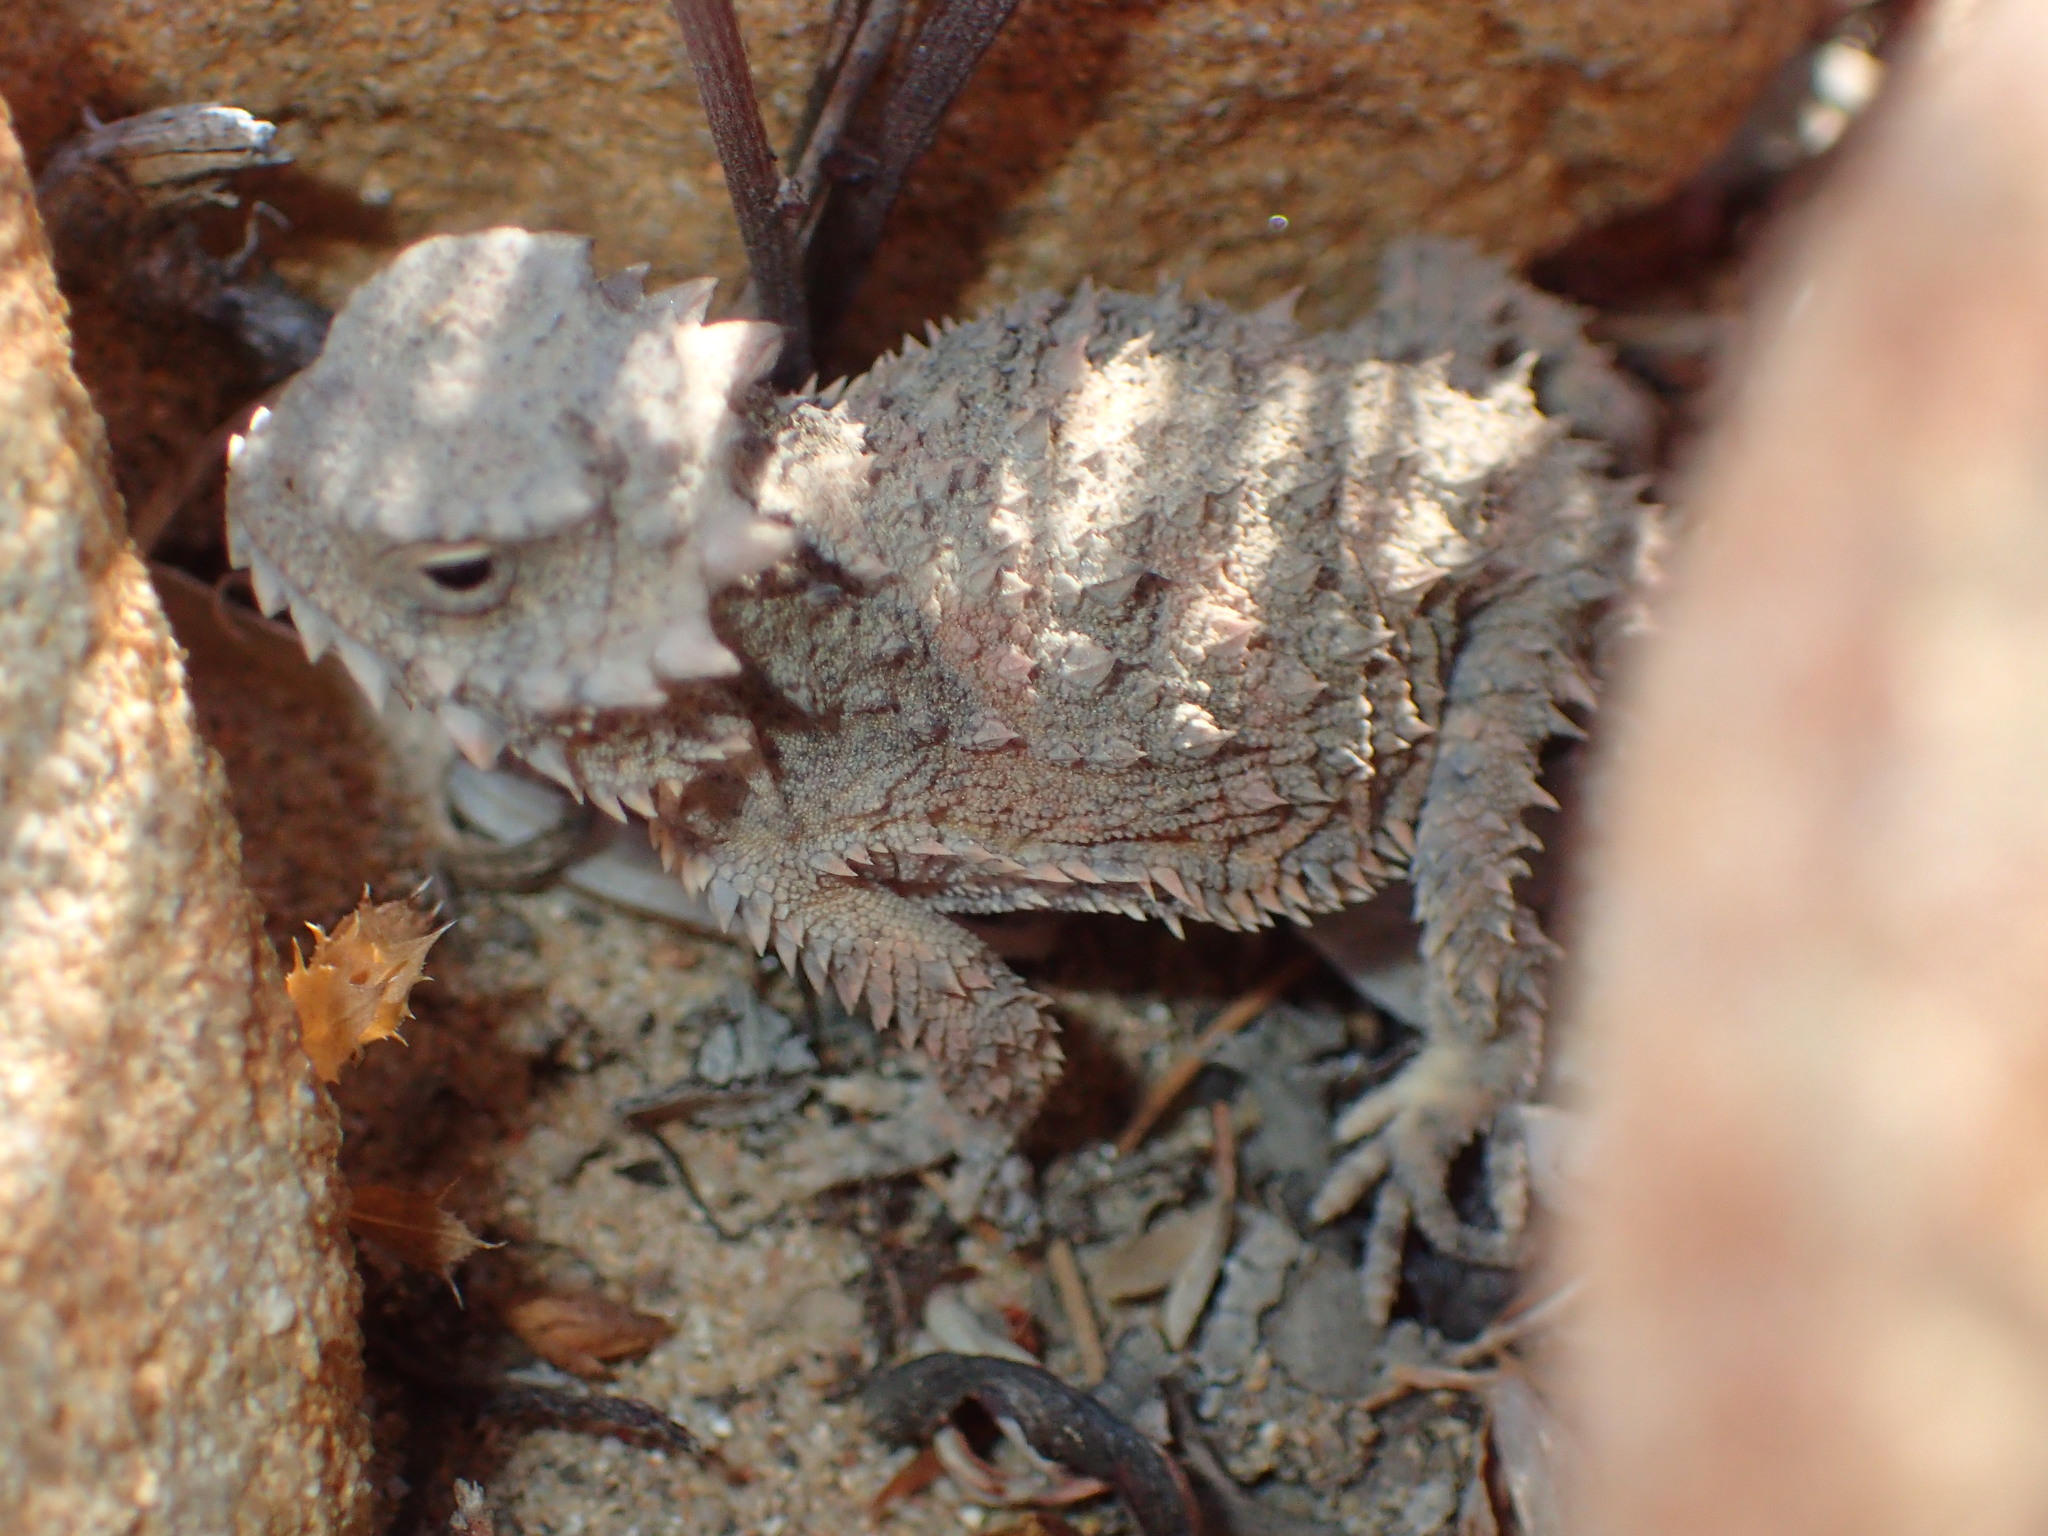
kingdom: Animalia
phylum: Chordata
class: Squamata
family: Phrynosomatidae
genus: Phrynosoma
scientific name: Phrynosoma blainvillii
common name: San diego horned lizard
